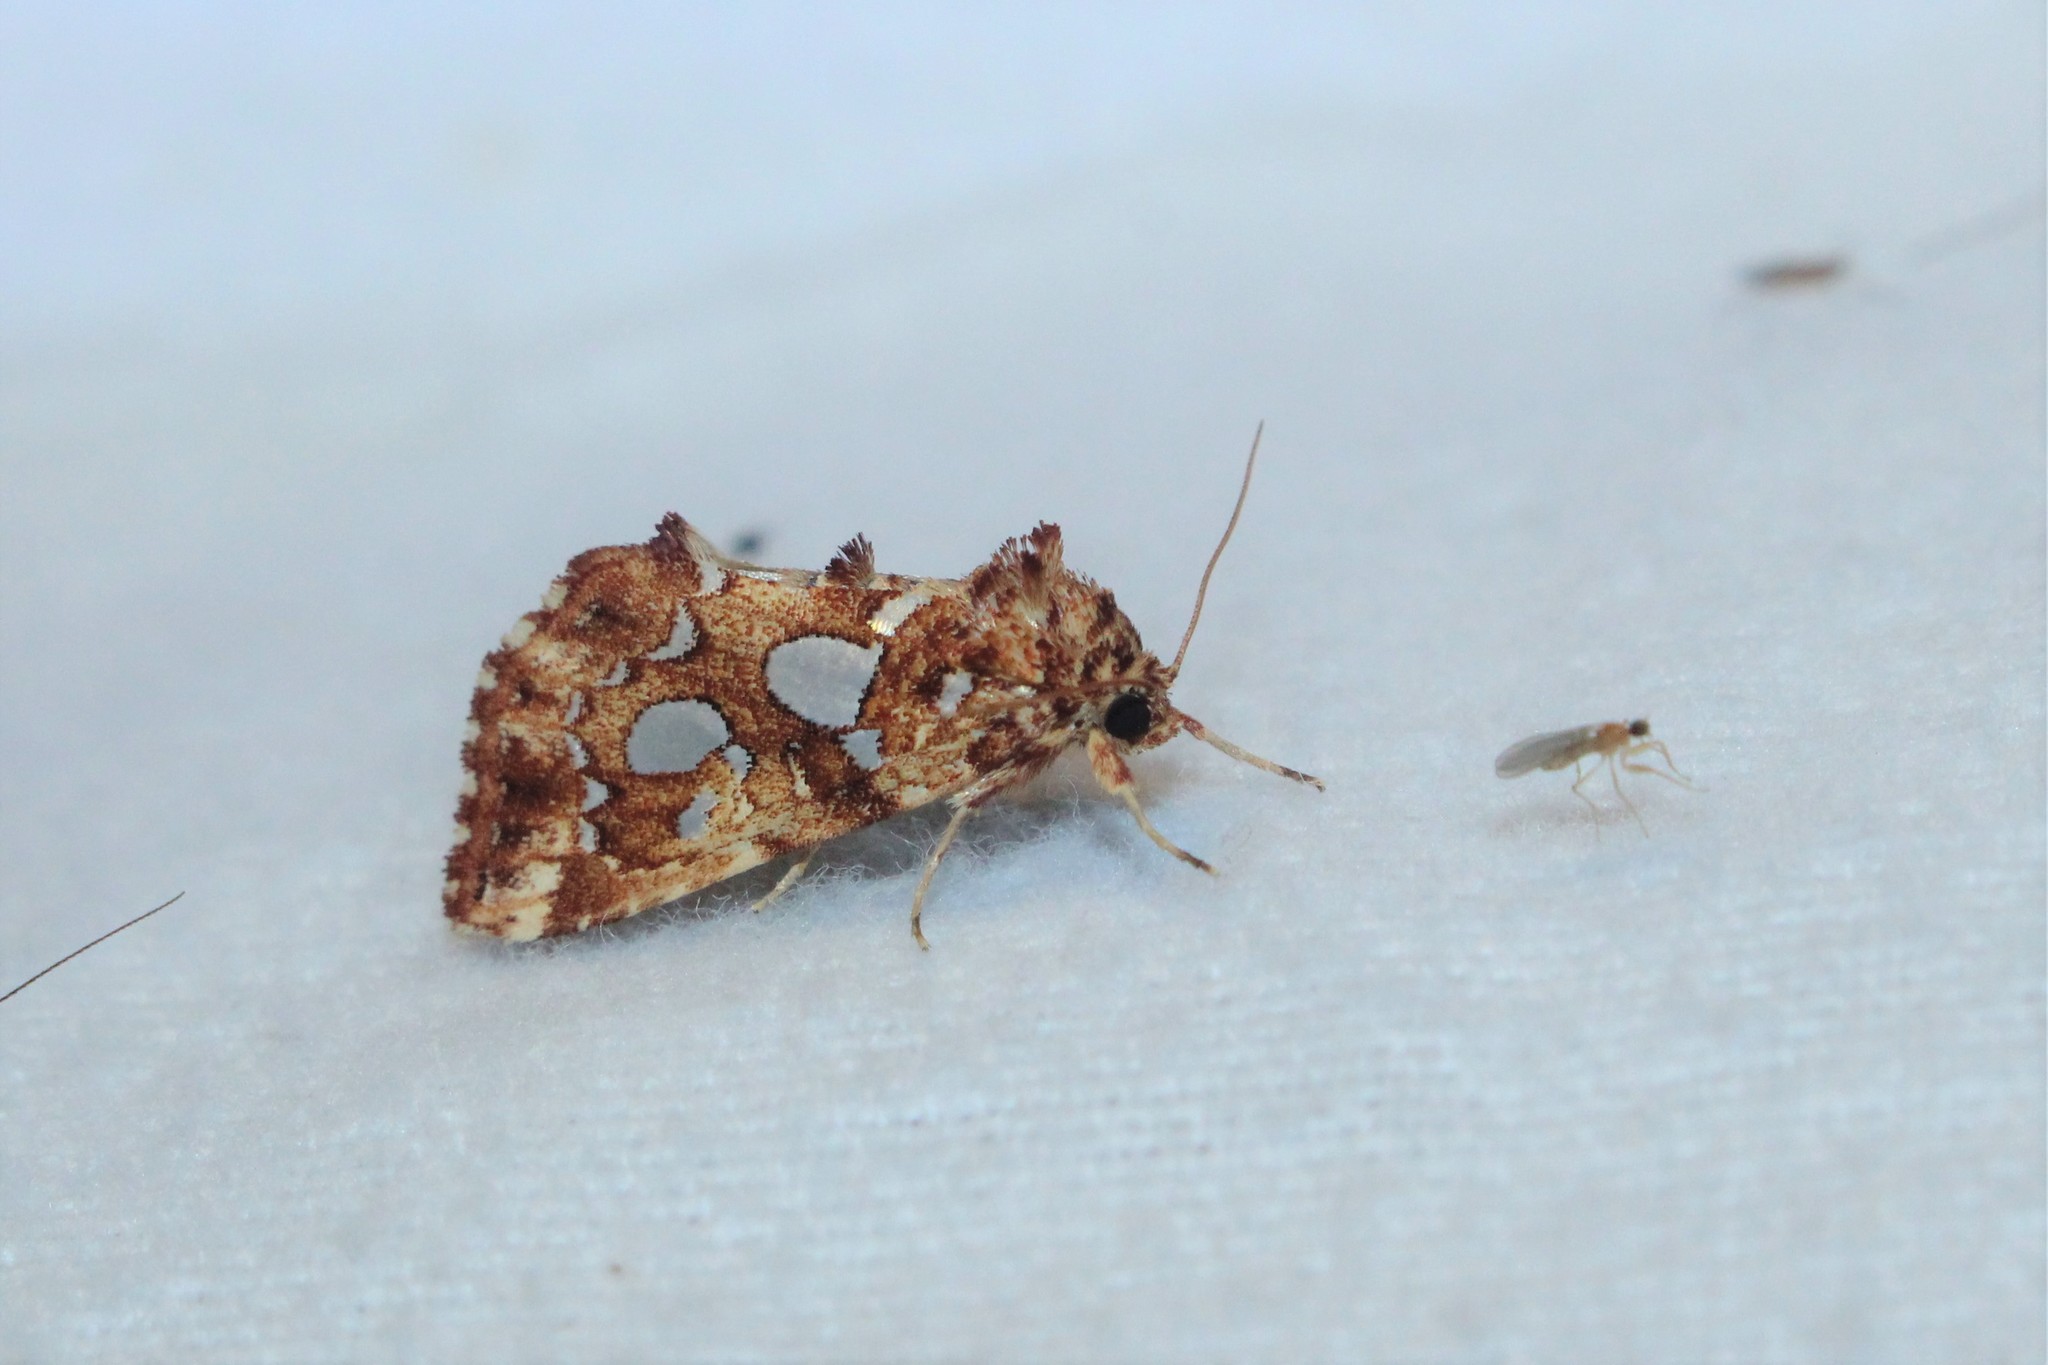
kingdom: Animalia
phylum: Arthropoda
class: Insecta
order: Lepidoptera
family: Noctuidae
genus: Callopistria
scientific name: Callopistria cordata
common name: Silver-spotted fern moth
